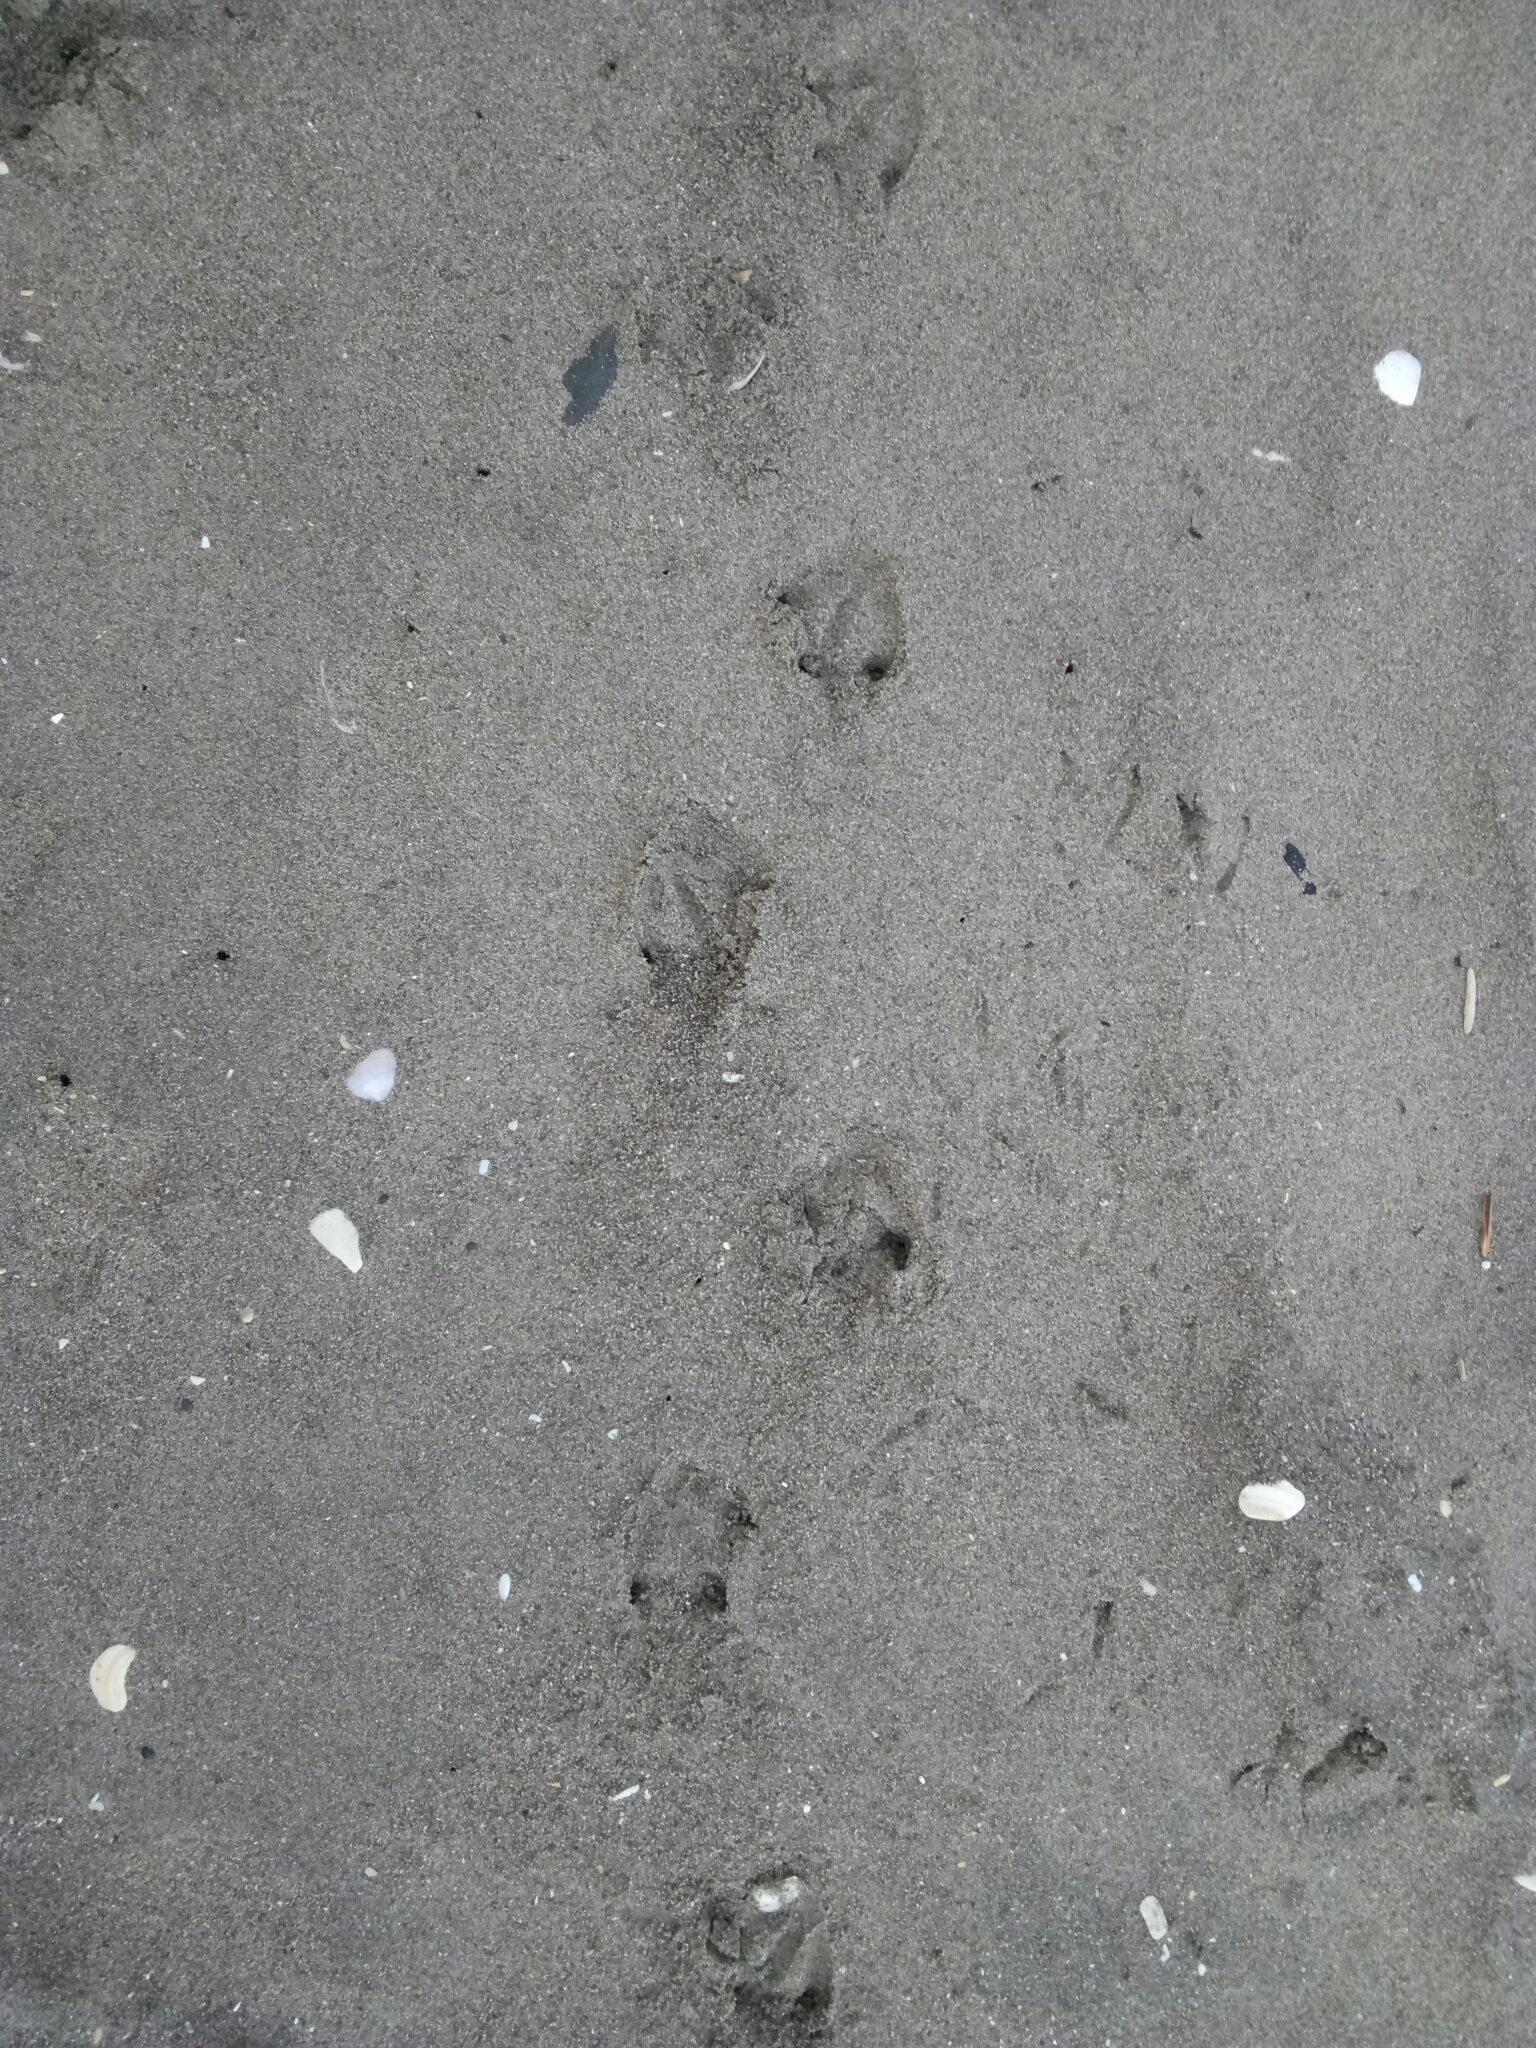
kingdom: Animalia
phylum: Chordata
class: Aves
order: Sphenisciformes
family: Spheniscidae
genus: Eudyptula
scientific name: Eudyptula minor
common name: Little penguin
